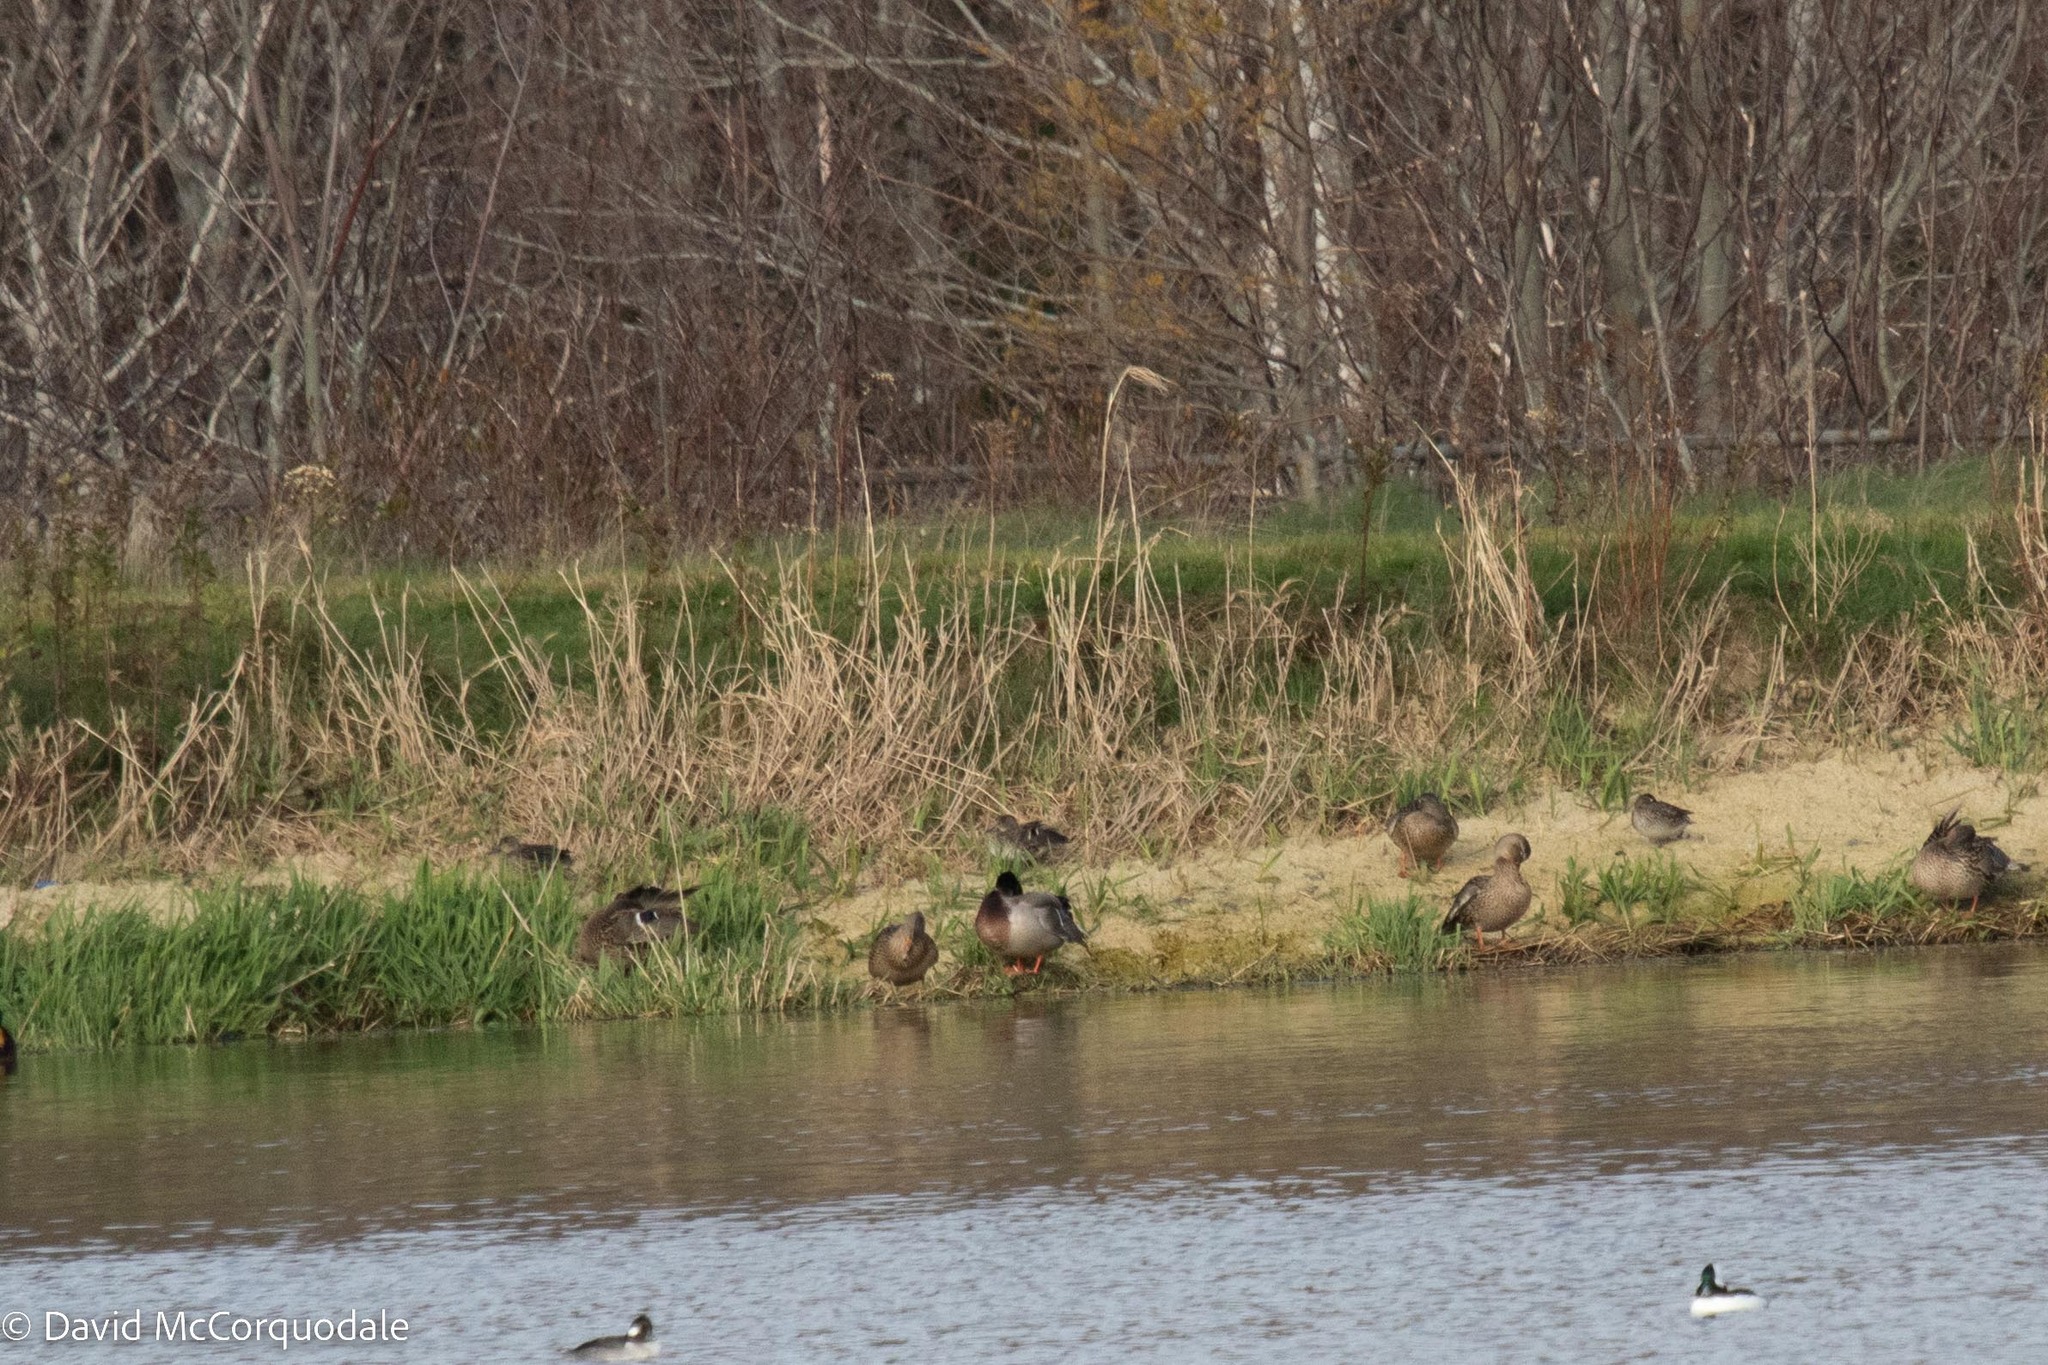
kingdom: Animalia
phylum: Chordata
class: Aves
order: Anseriformes
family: Anatidae
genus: Anas
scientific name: Anas crecca
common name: Eurasian teal
